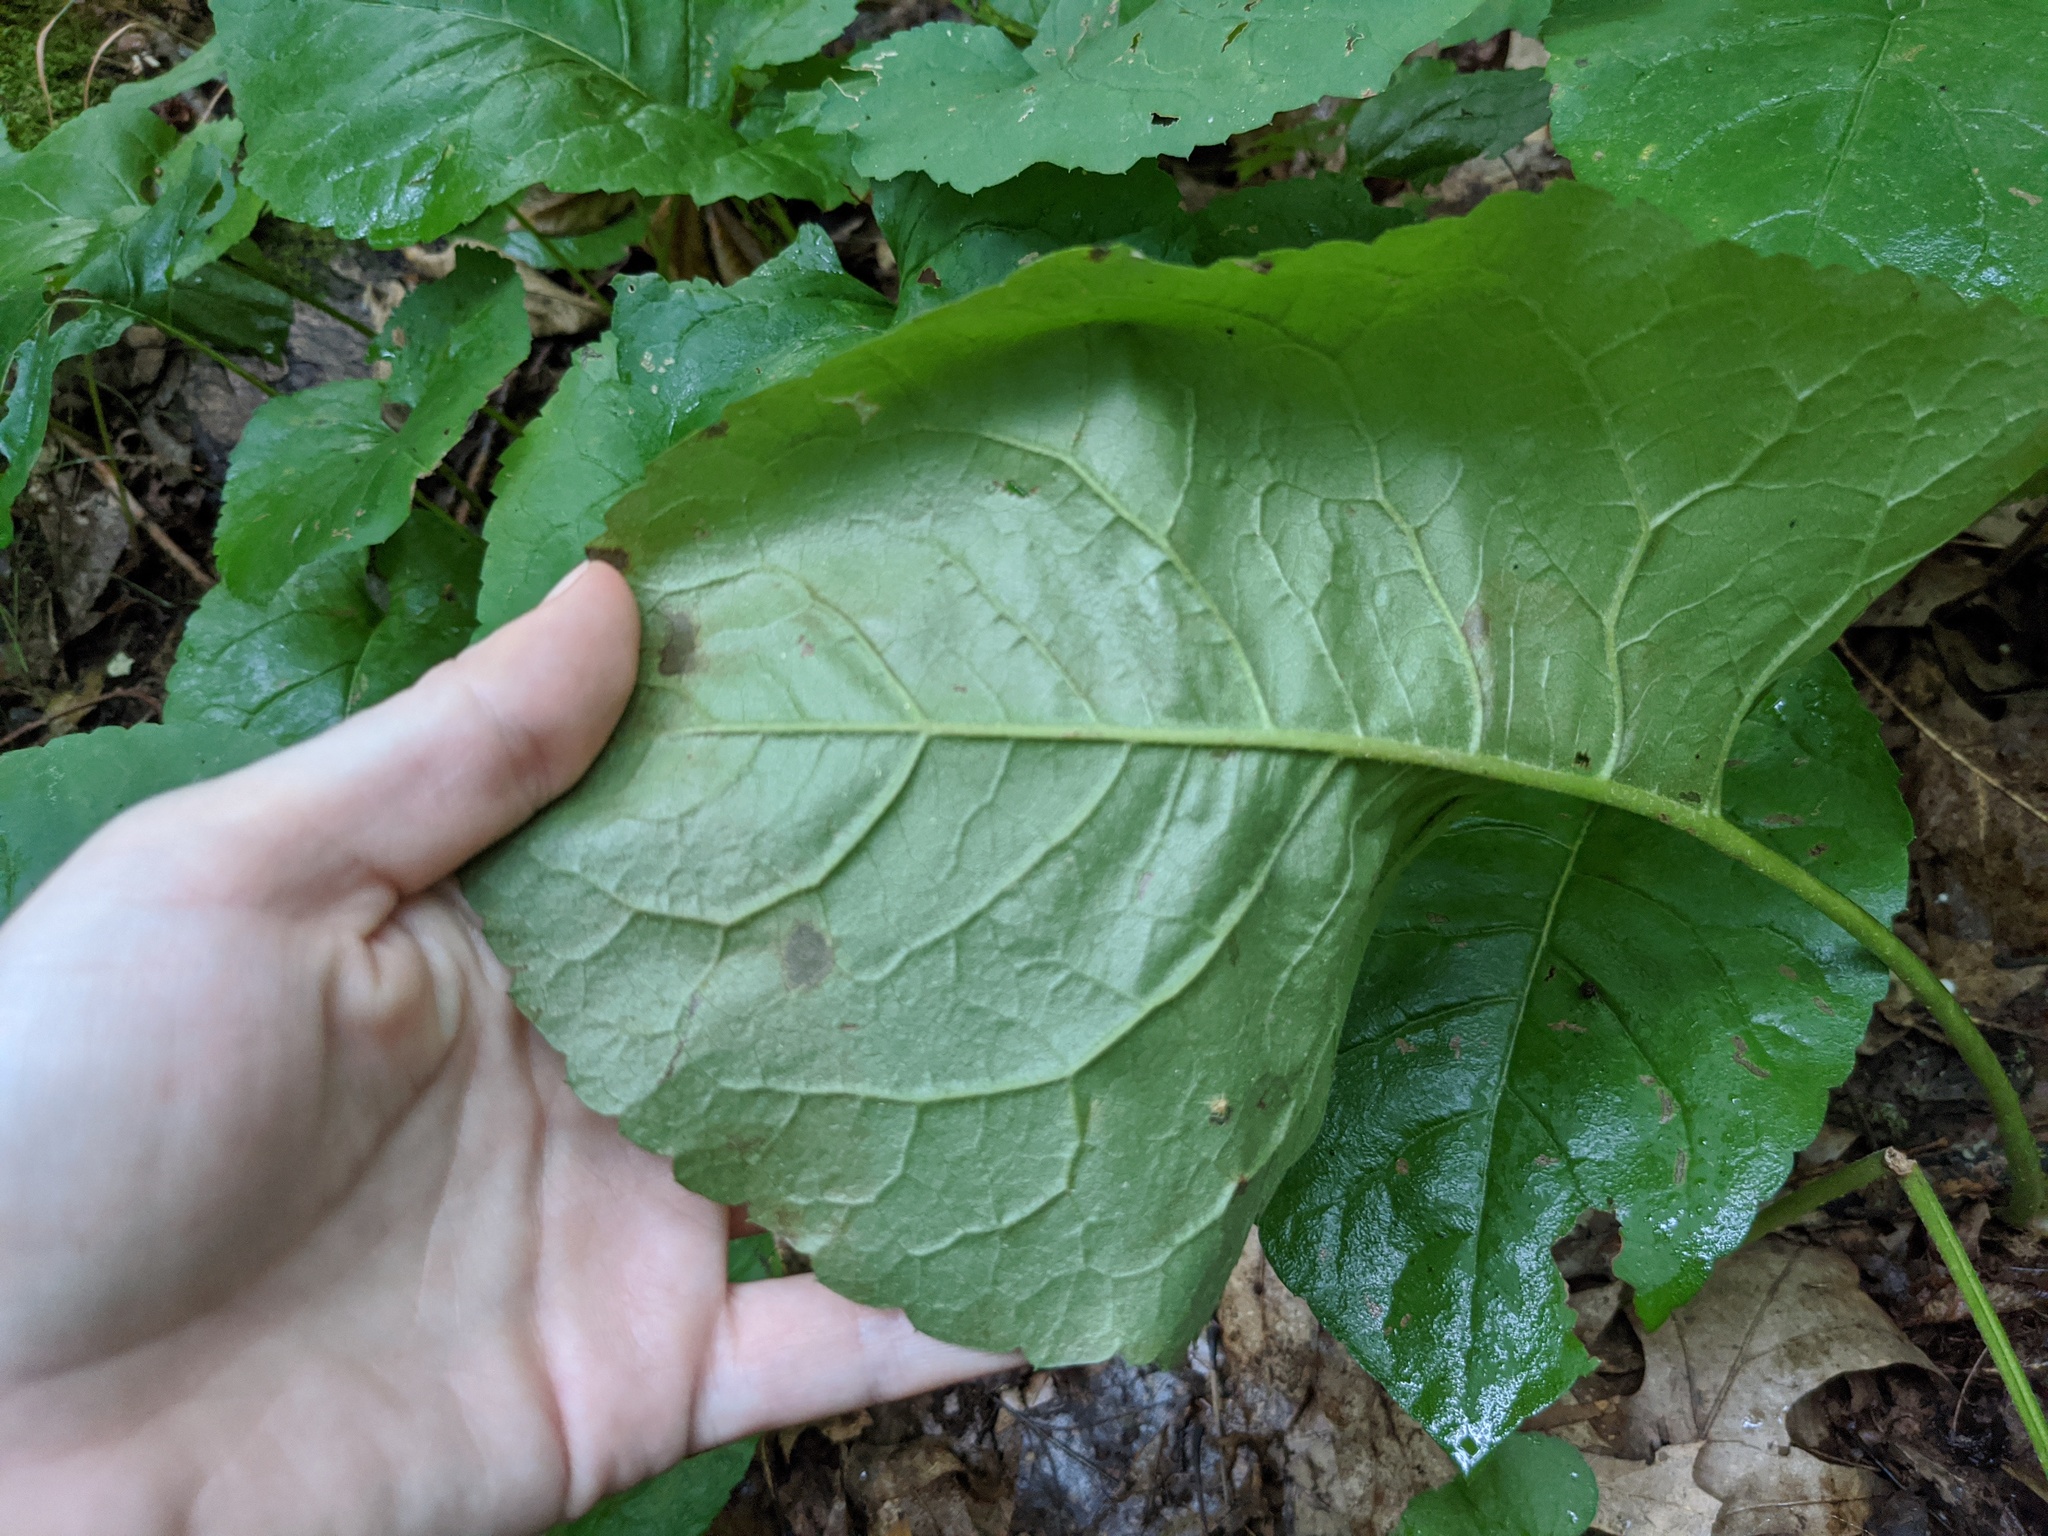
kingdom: Plantae
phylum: Tracheophyta
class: Magnoliopsida
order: Asterales
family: Asteraceae
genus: Eurybia
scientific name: Eurybia macrophylla
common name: Big-leaved aster
